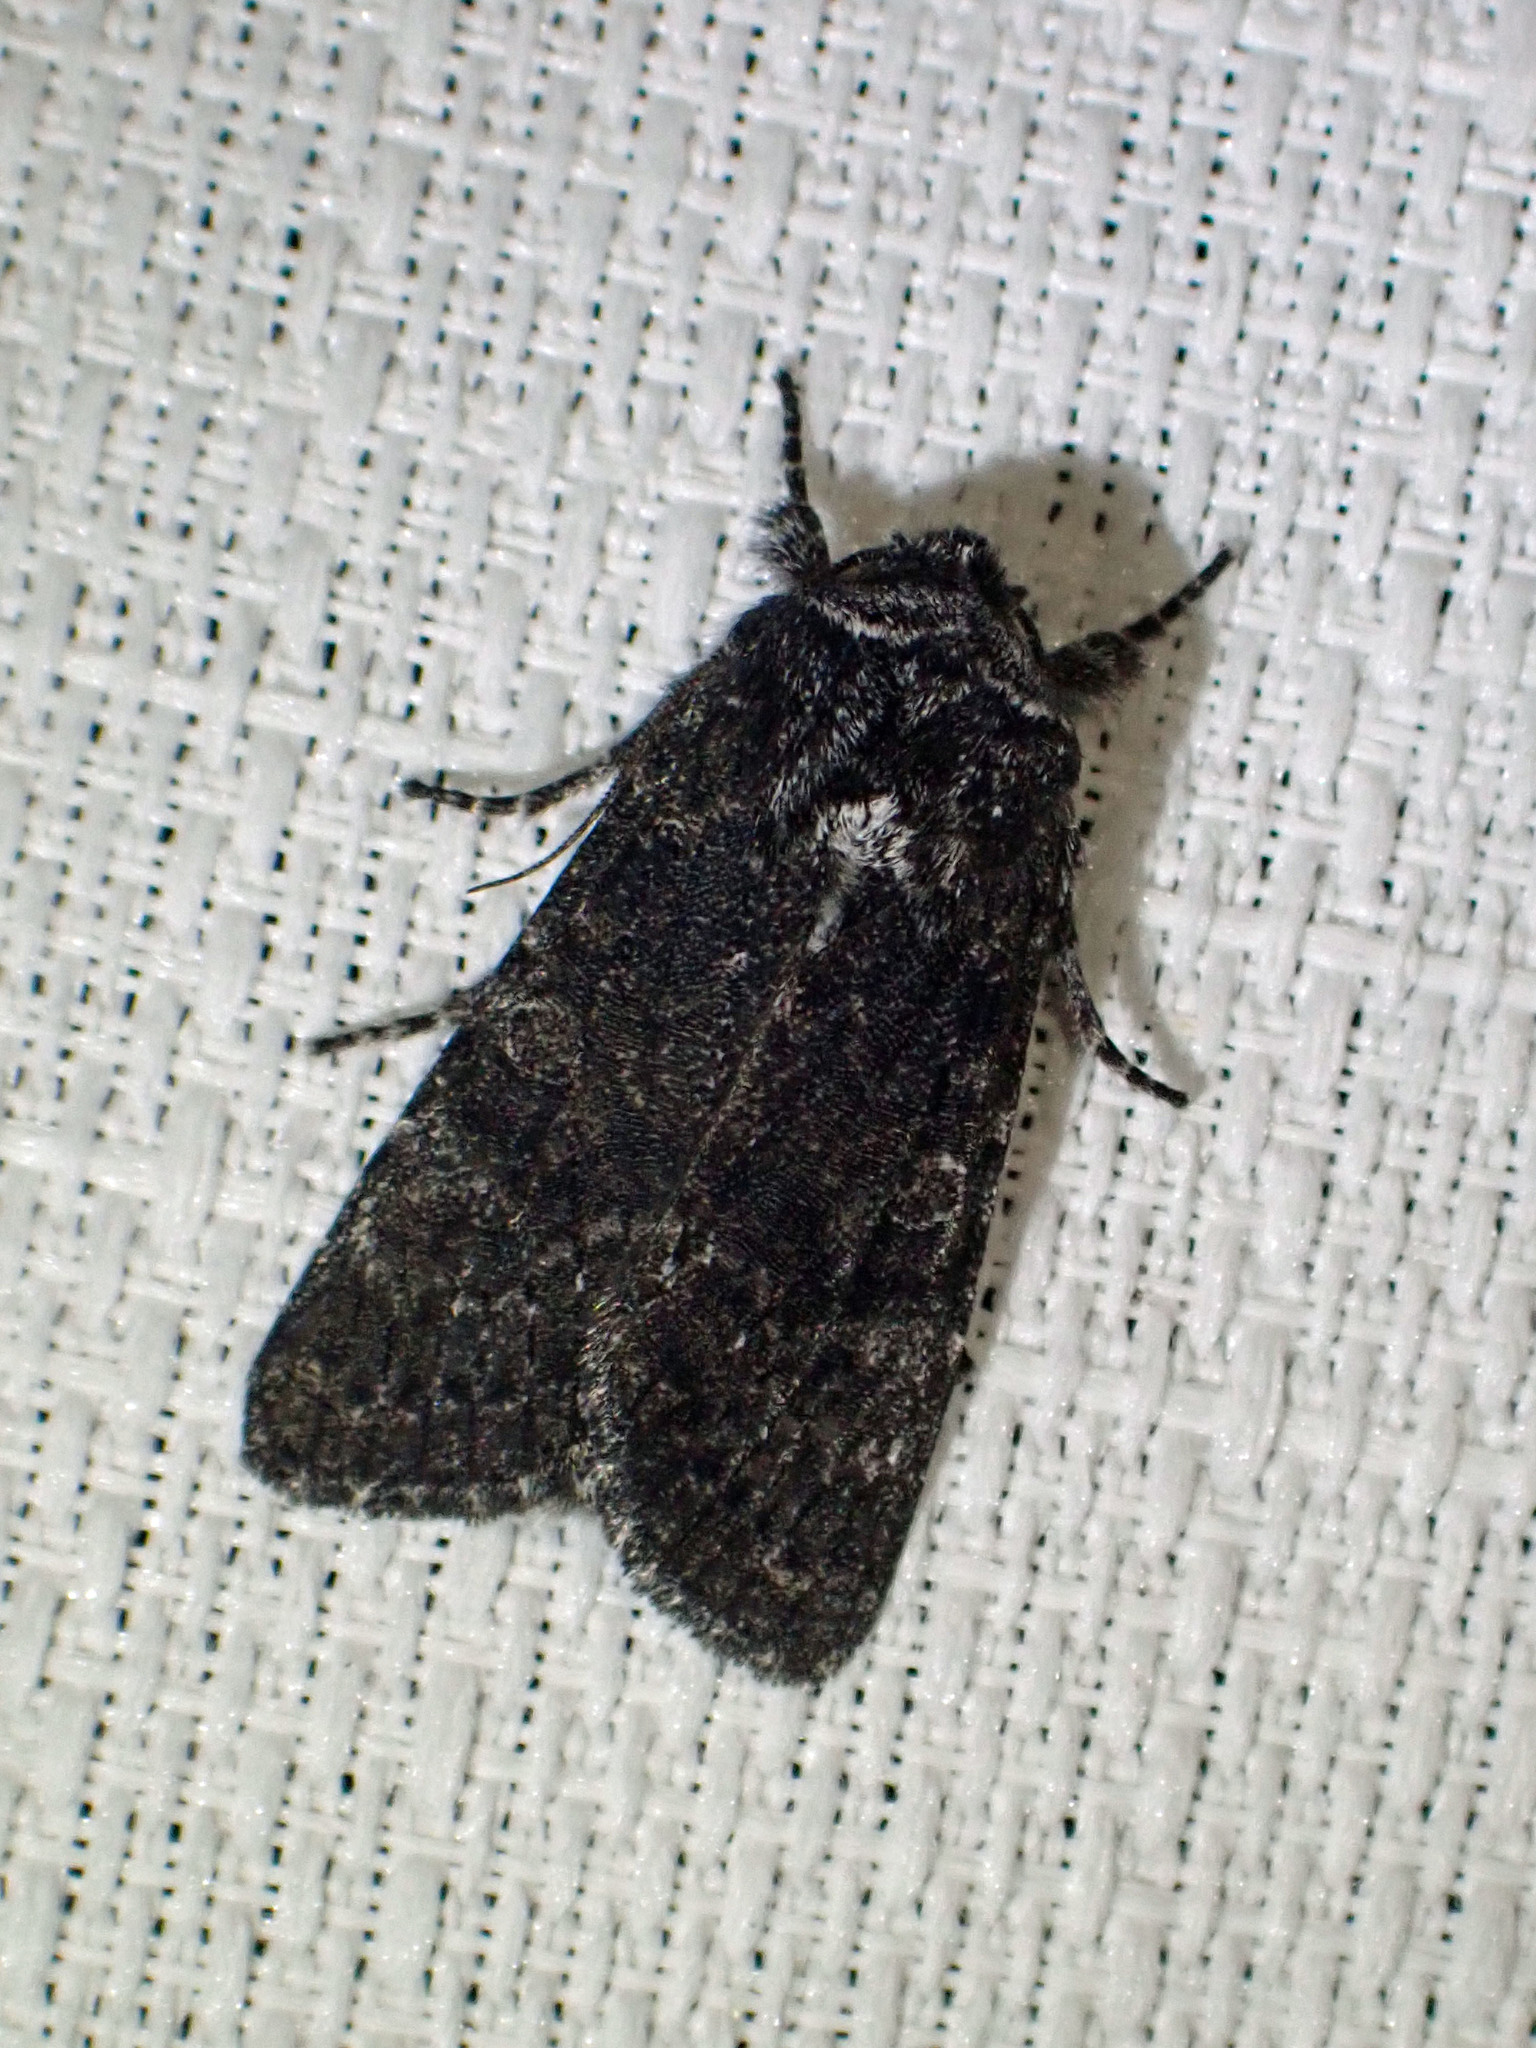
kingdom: Animalia
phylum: Arthropoda
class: Insecta
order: Lepidoptera
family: Noctuidae
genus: Egira
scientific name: Egira dolosa
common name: Lined black aspen cat.
